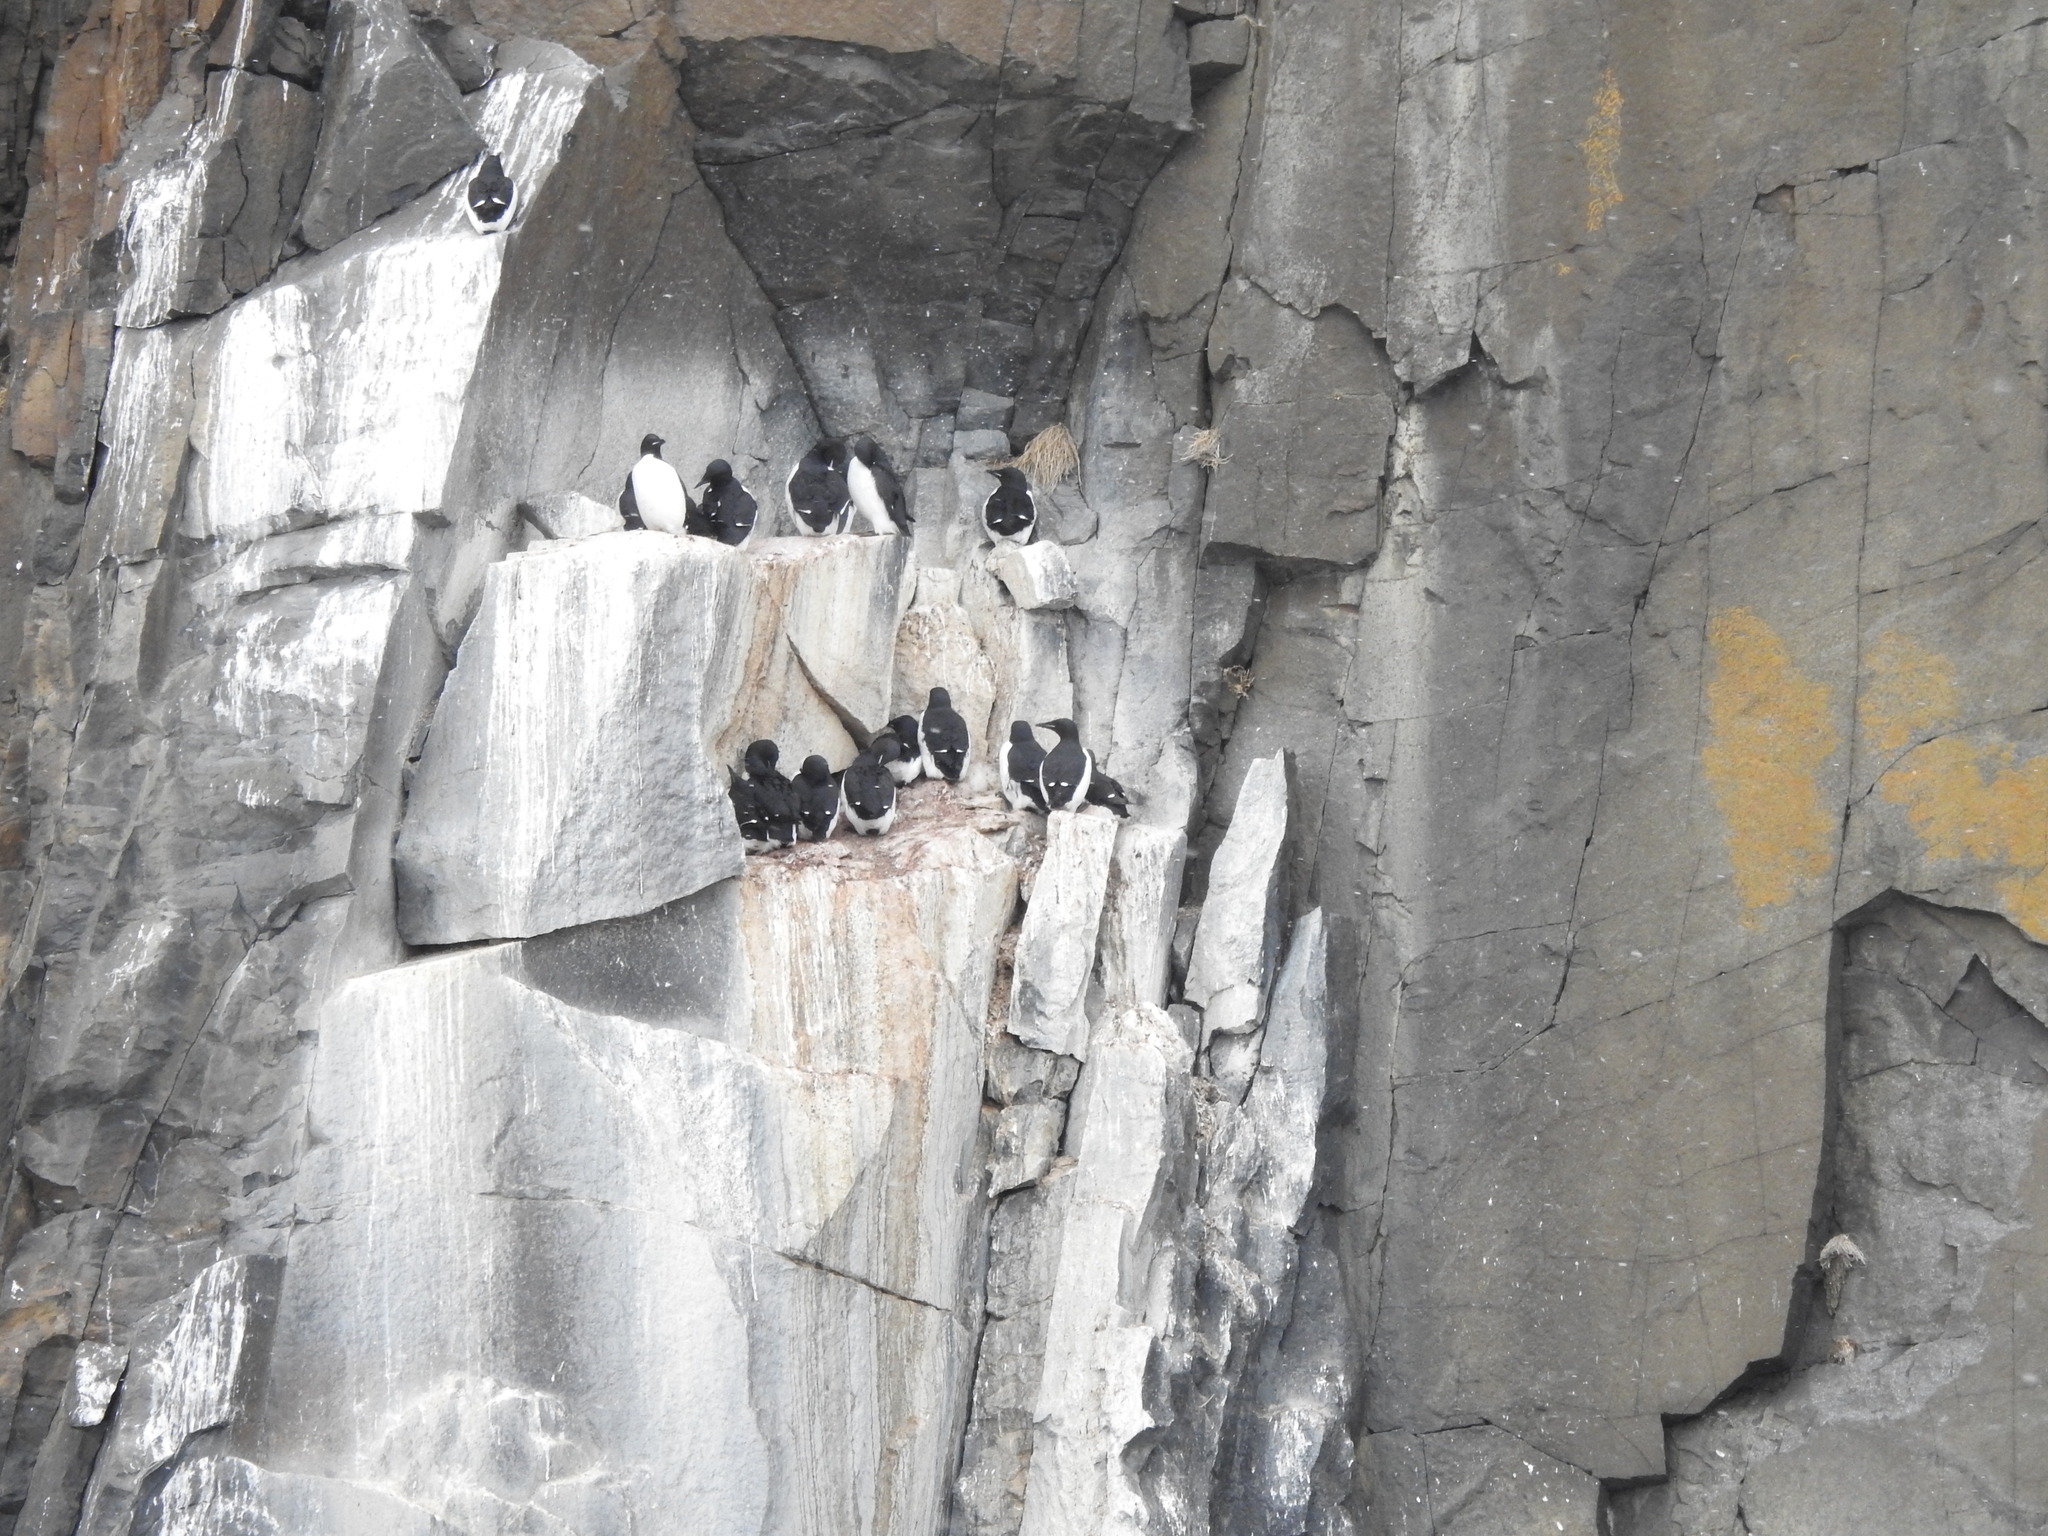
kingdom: Animalia
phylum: Chordata
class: Aves
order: Charadriiformes
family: Alcidae
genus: Uria
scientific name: Uria lomvia
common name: Thick-billed murre
